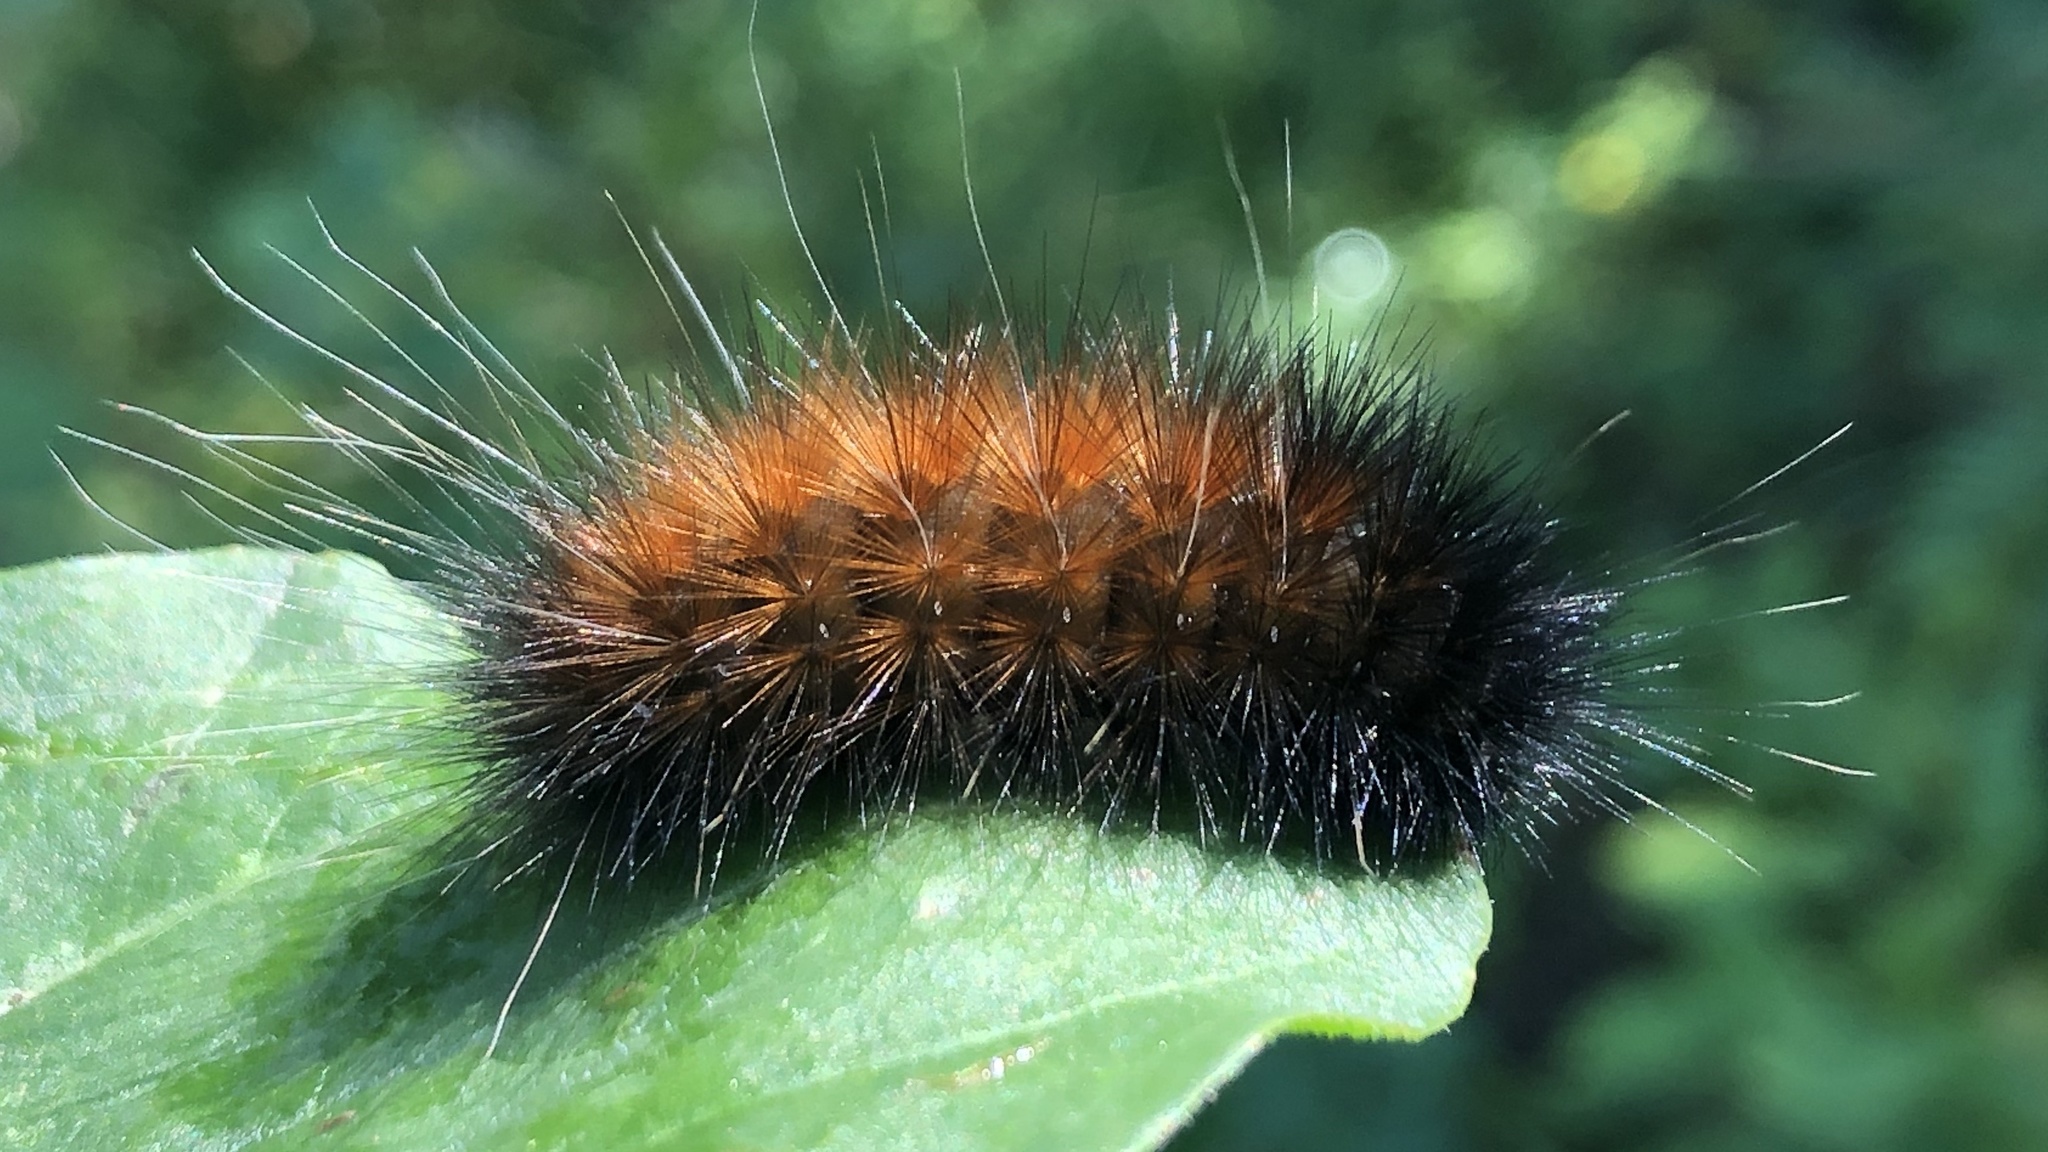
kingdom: Animalia
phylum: Arthropoda
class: Insecta
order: Lepidoptera
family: Erebidae
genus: Spilosoma
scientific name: Spilosoma virginica
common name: Virginia tiger moth
